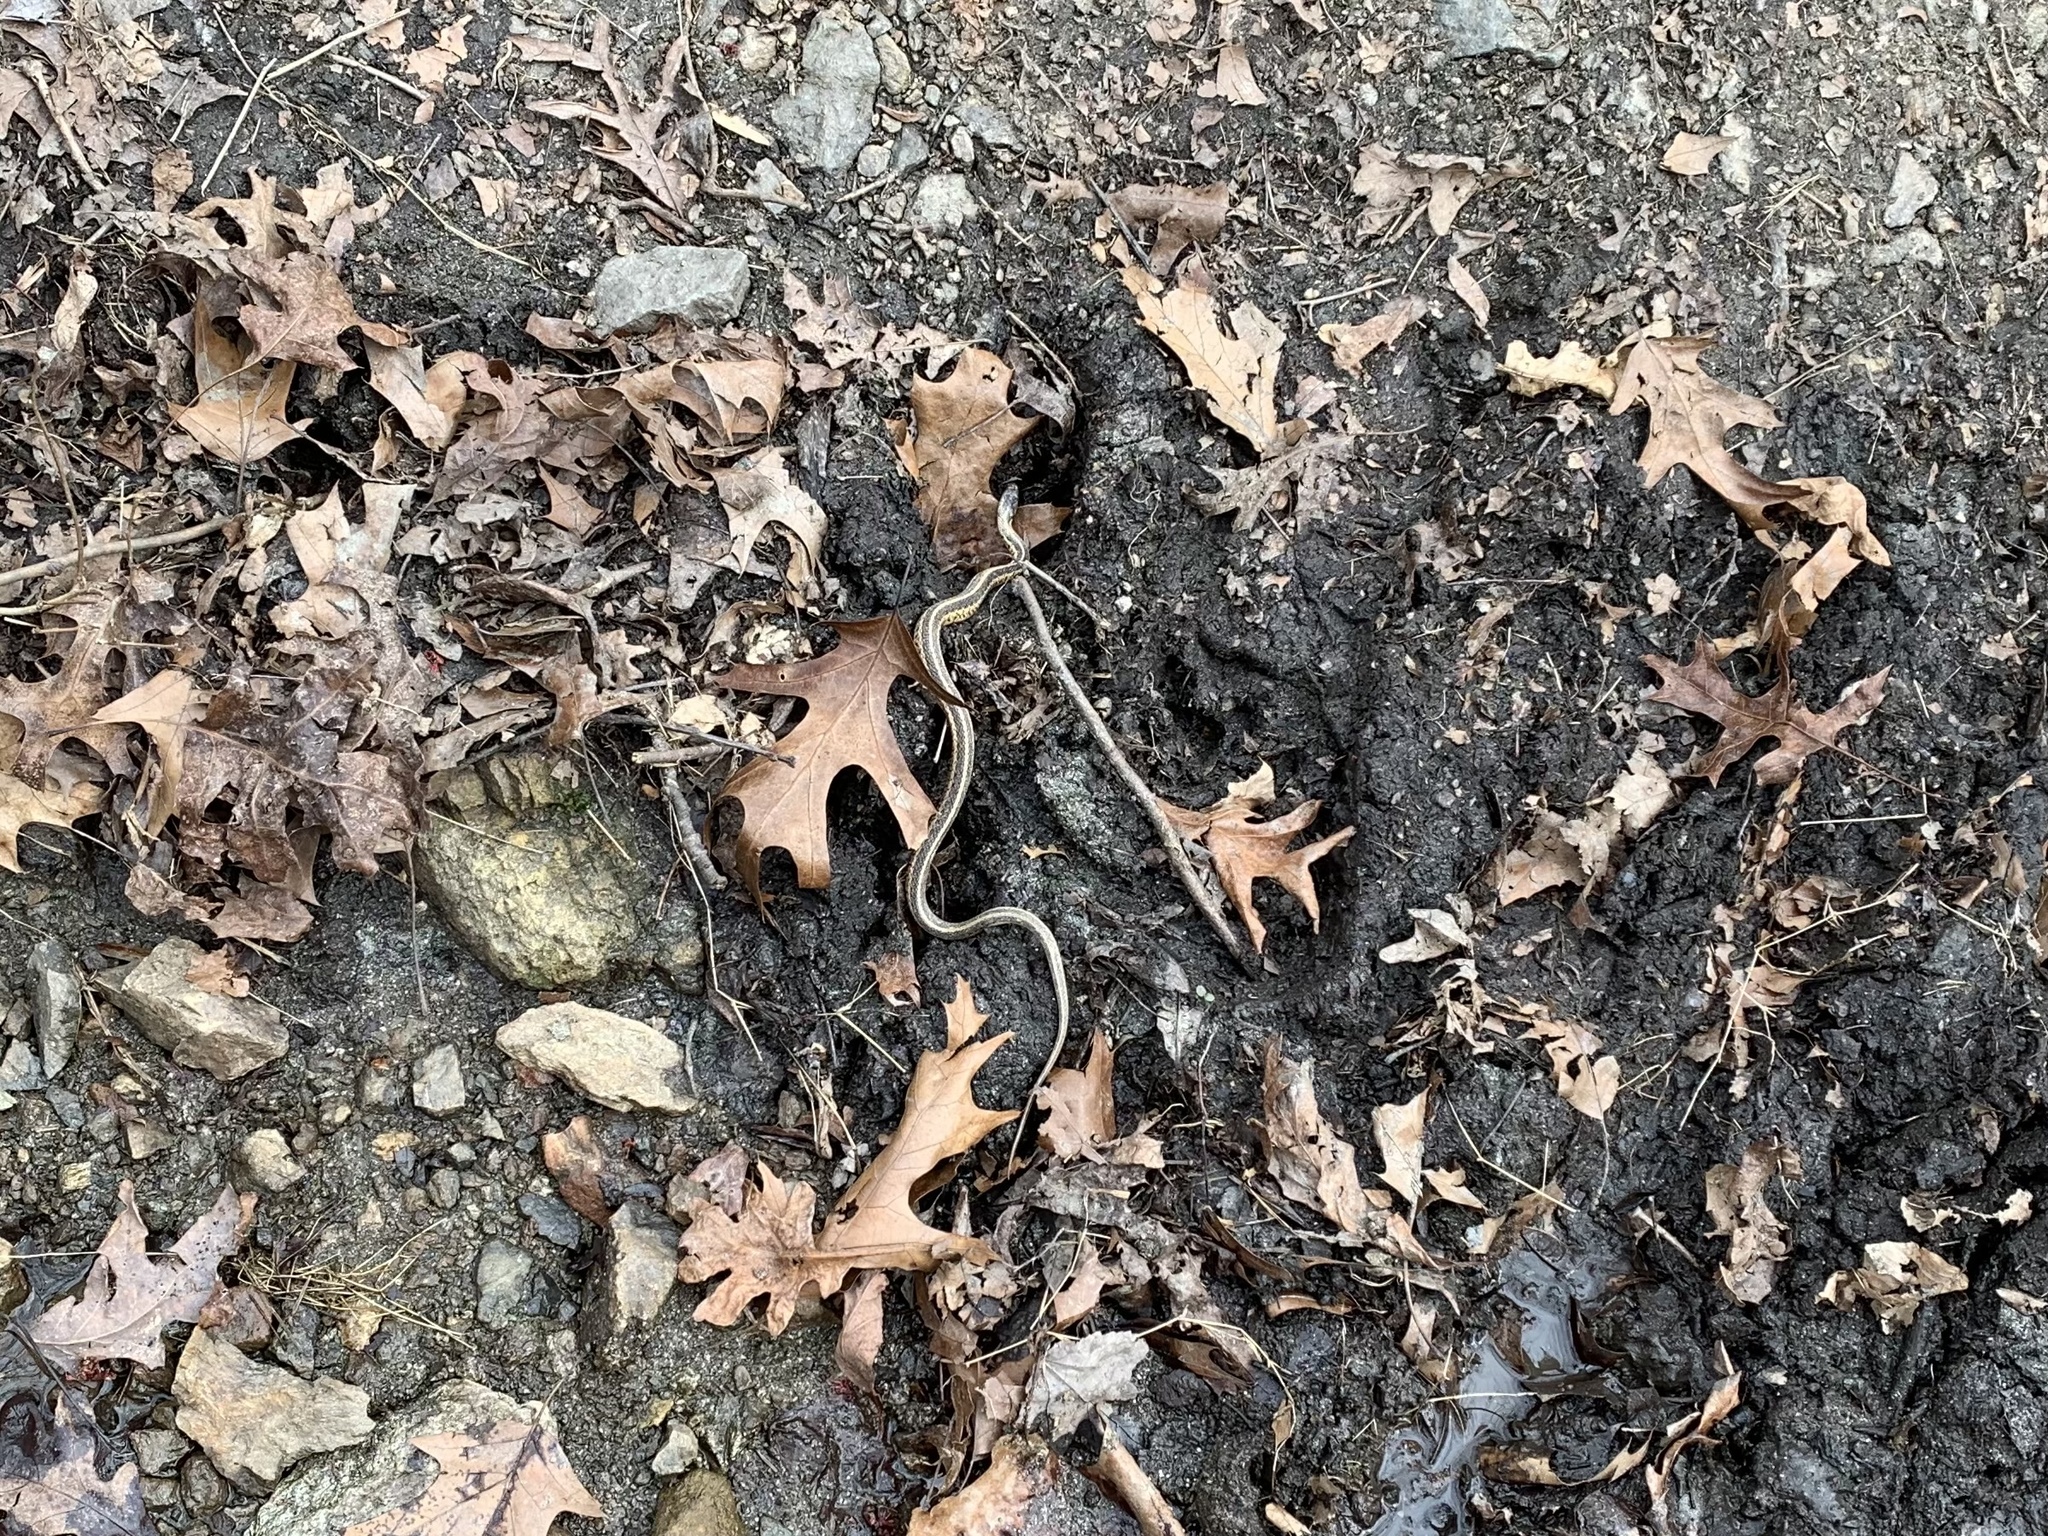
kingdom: Animalia
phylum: Chordata
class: Squamata
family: Colubridae
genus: Thamnophis
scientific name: Thamnophis sirtalis
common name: Common garter snake
